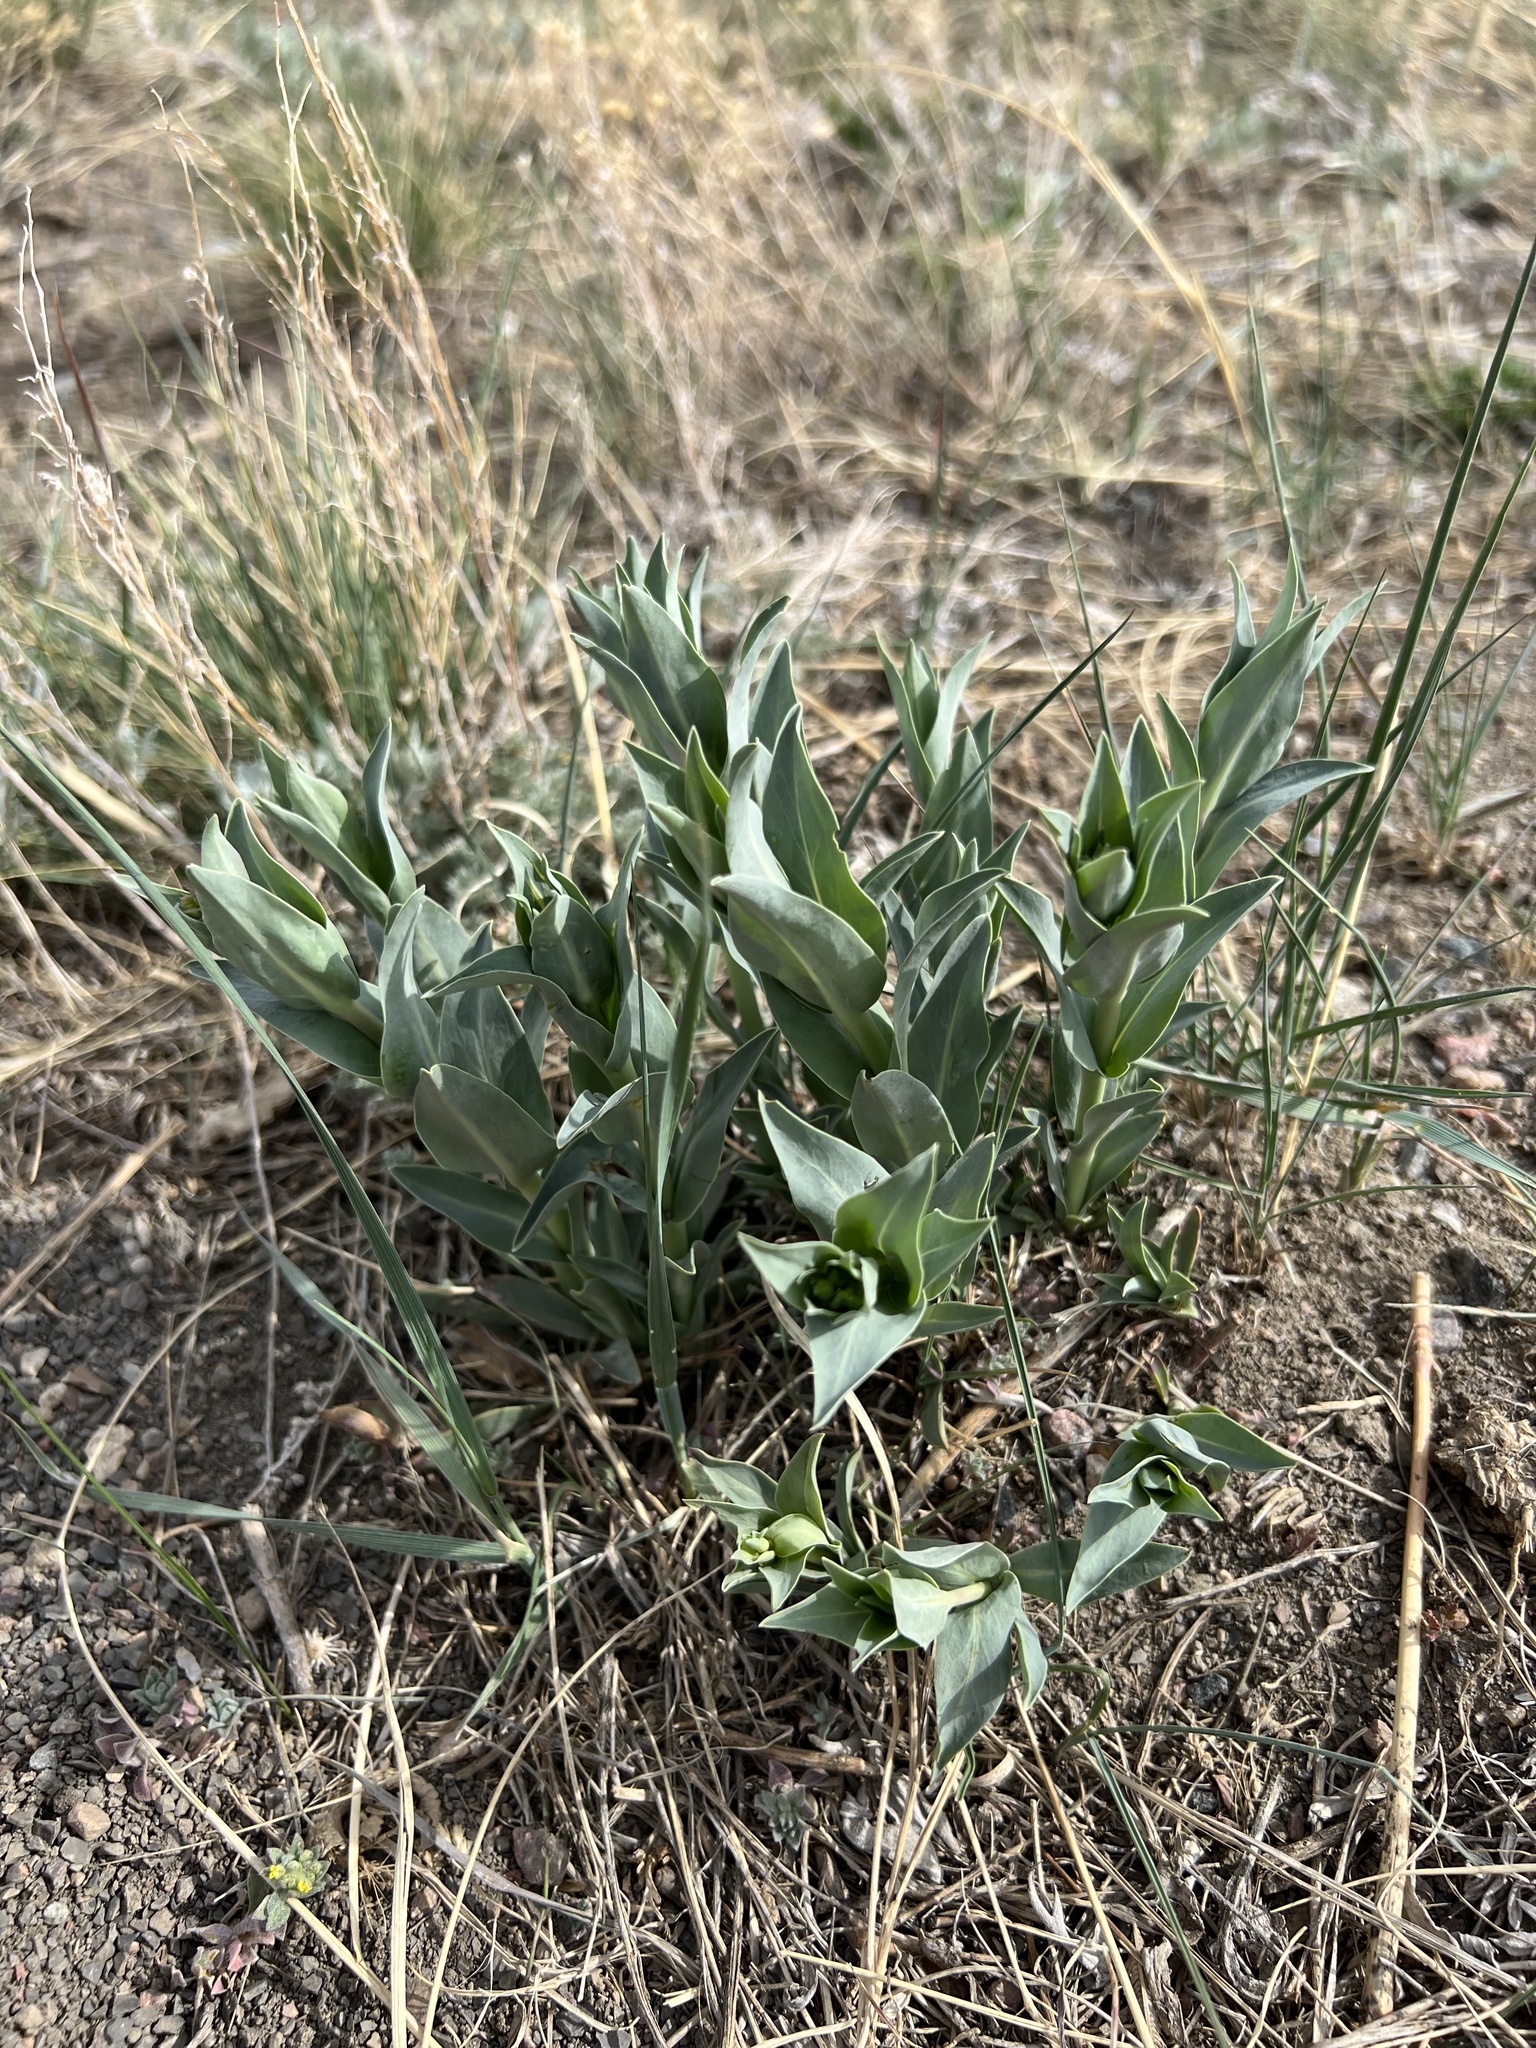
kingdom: Plantae
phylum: Tracheophyta
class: Magnoliopsida
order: Lamiales
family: Plantaginaceae
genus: Penstemon
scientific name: Penstemon secundiflorus
